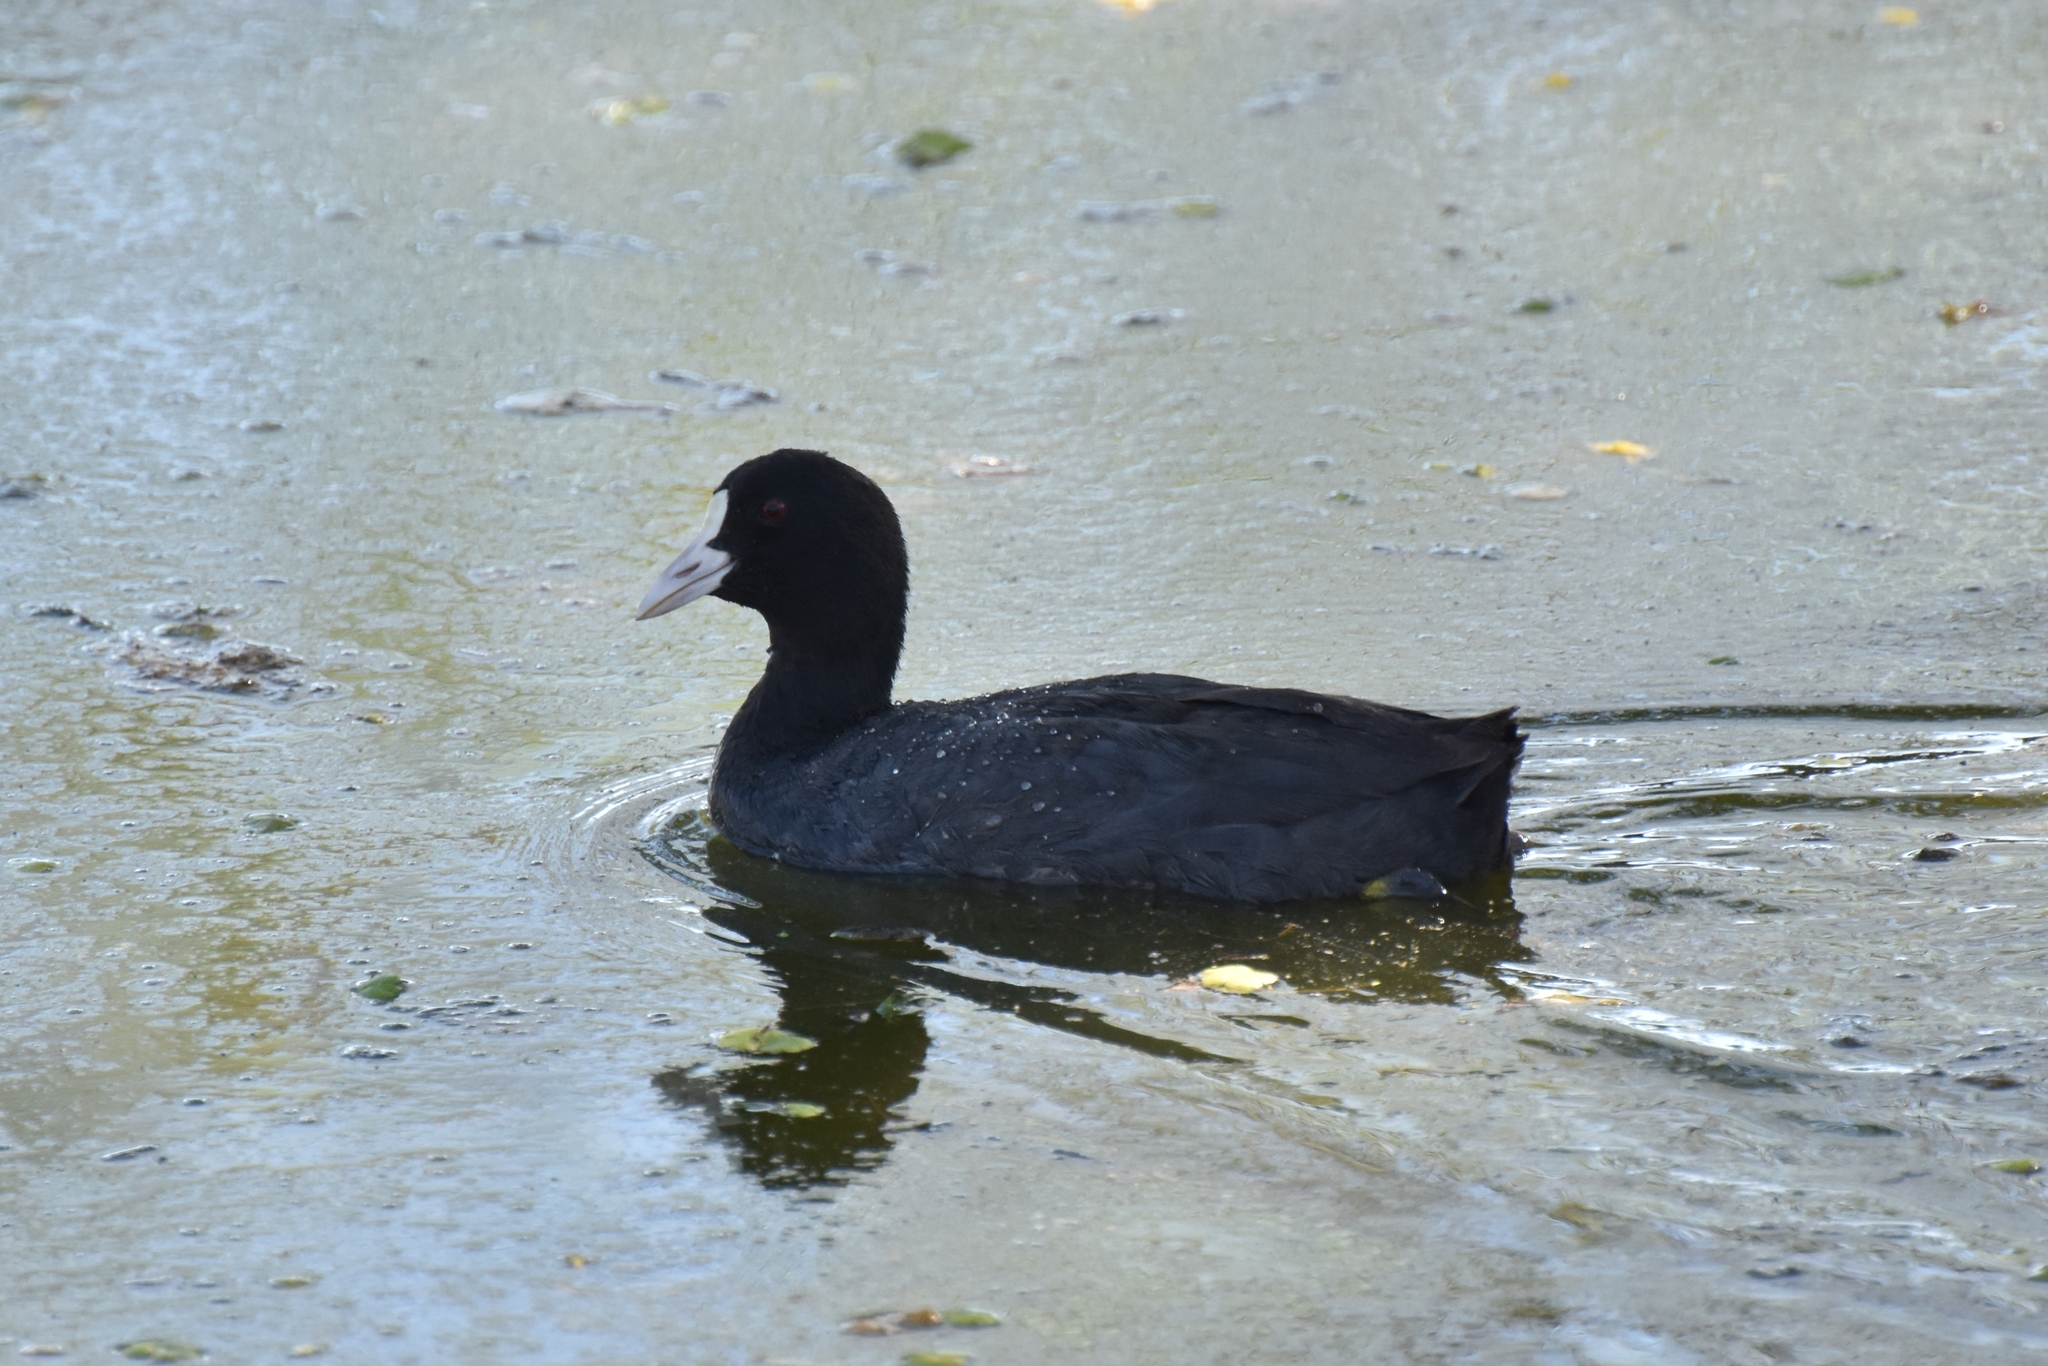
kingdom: Animalia
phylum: Chordata
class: Aves
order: Gruiformes
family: Rallidae
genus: Fulica
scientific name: Fulica atra
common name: Eurasian coot
